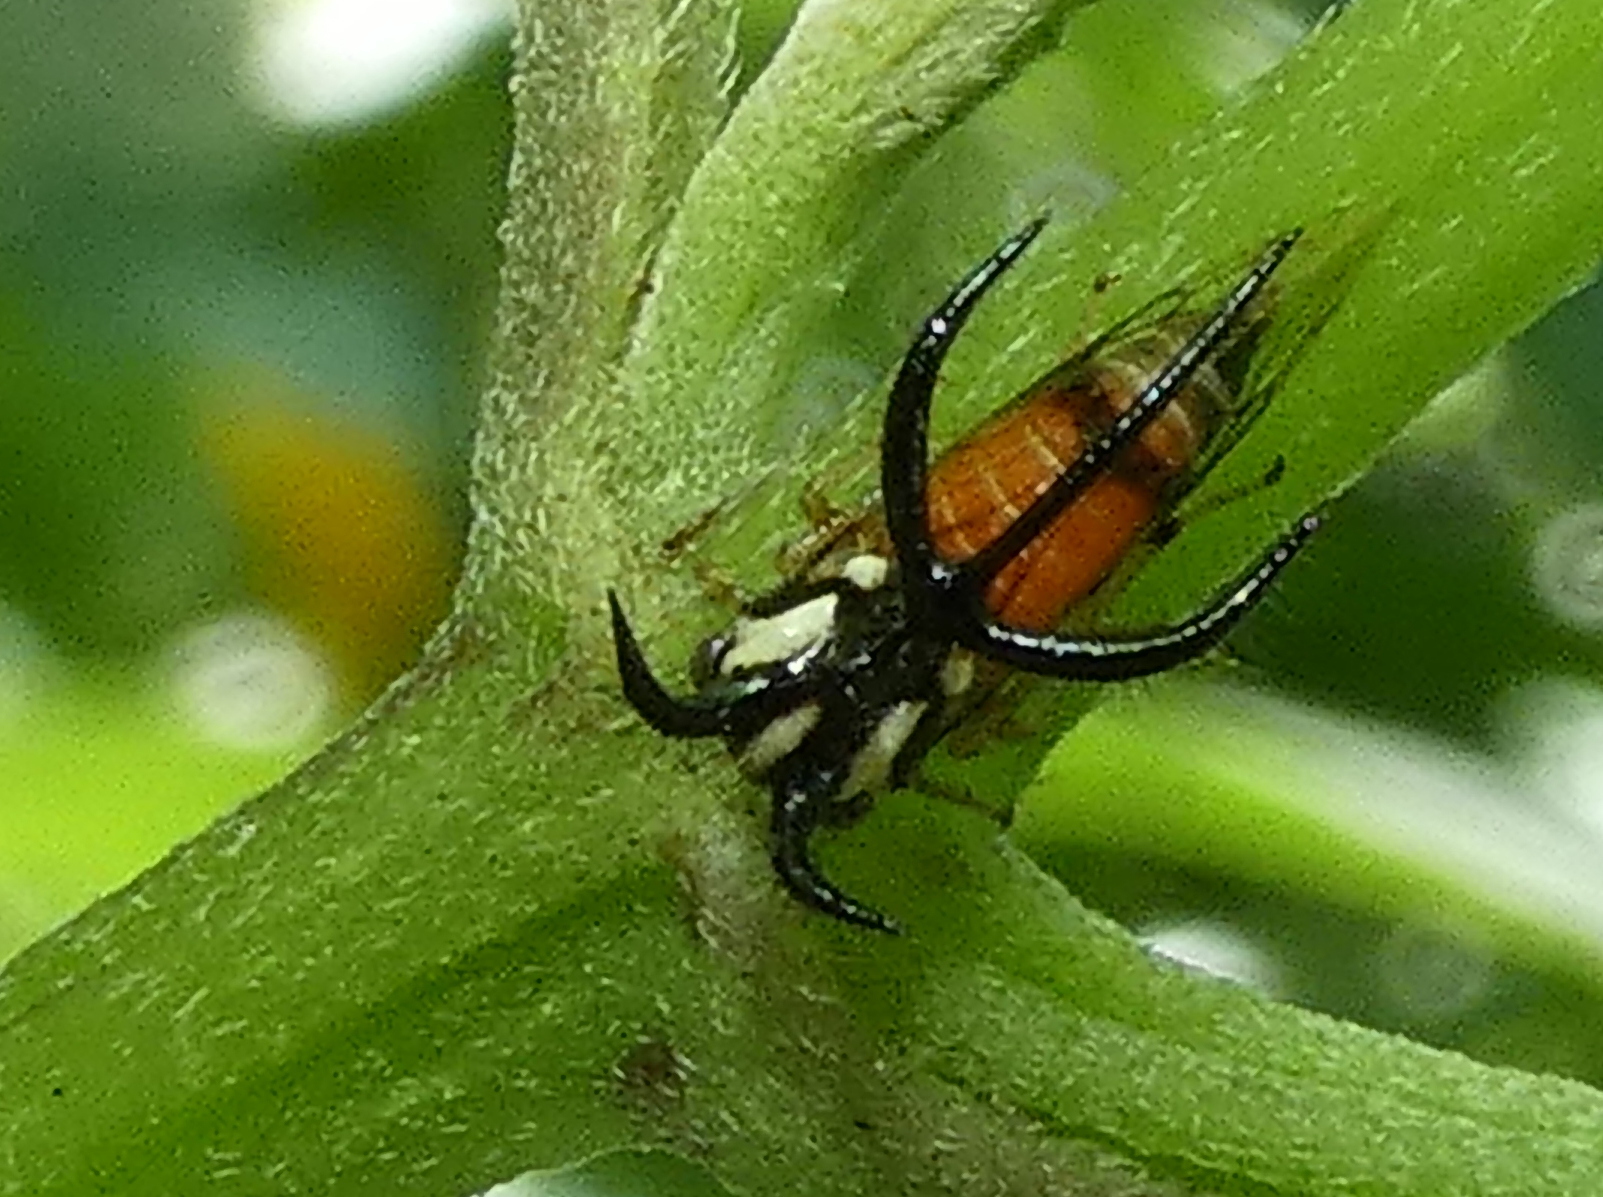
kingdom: Animalia
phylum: Arthropoda
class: Insecta
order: Hemiptera
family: Membracidae
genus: Cyphonia
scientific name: Cyphonia trifida
